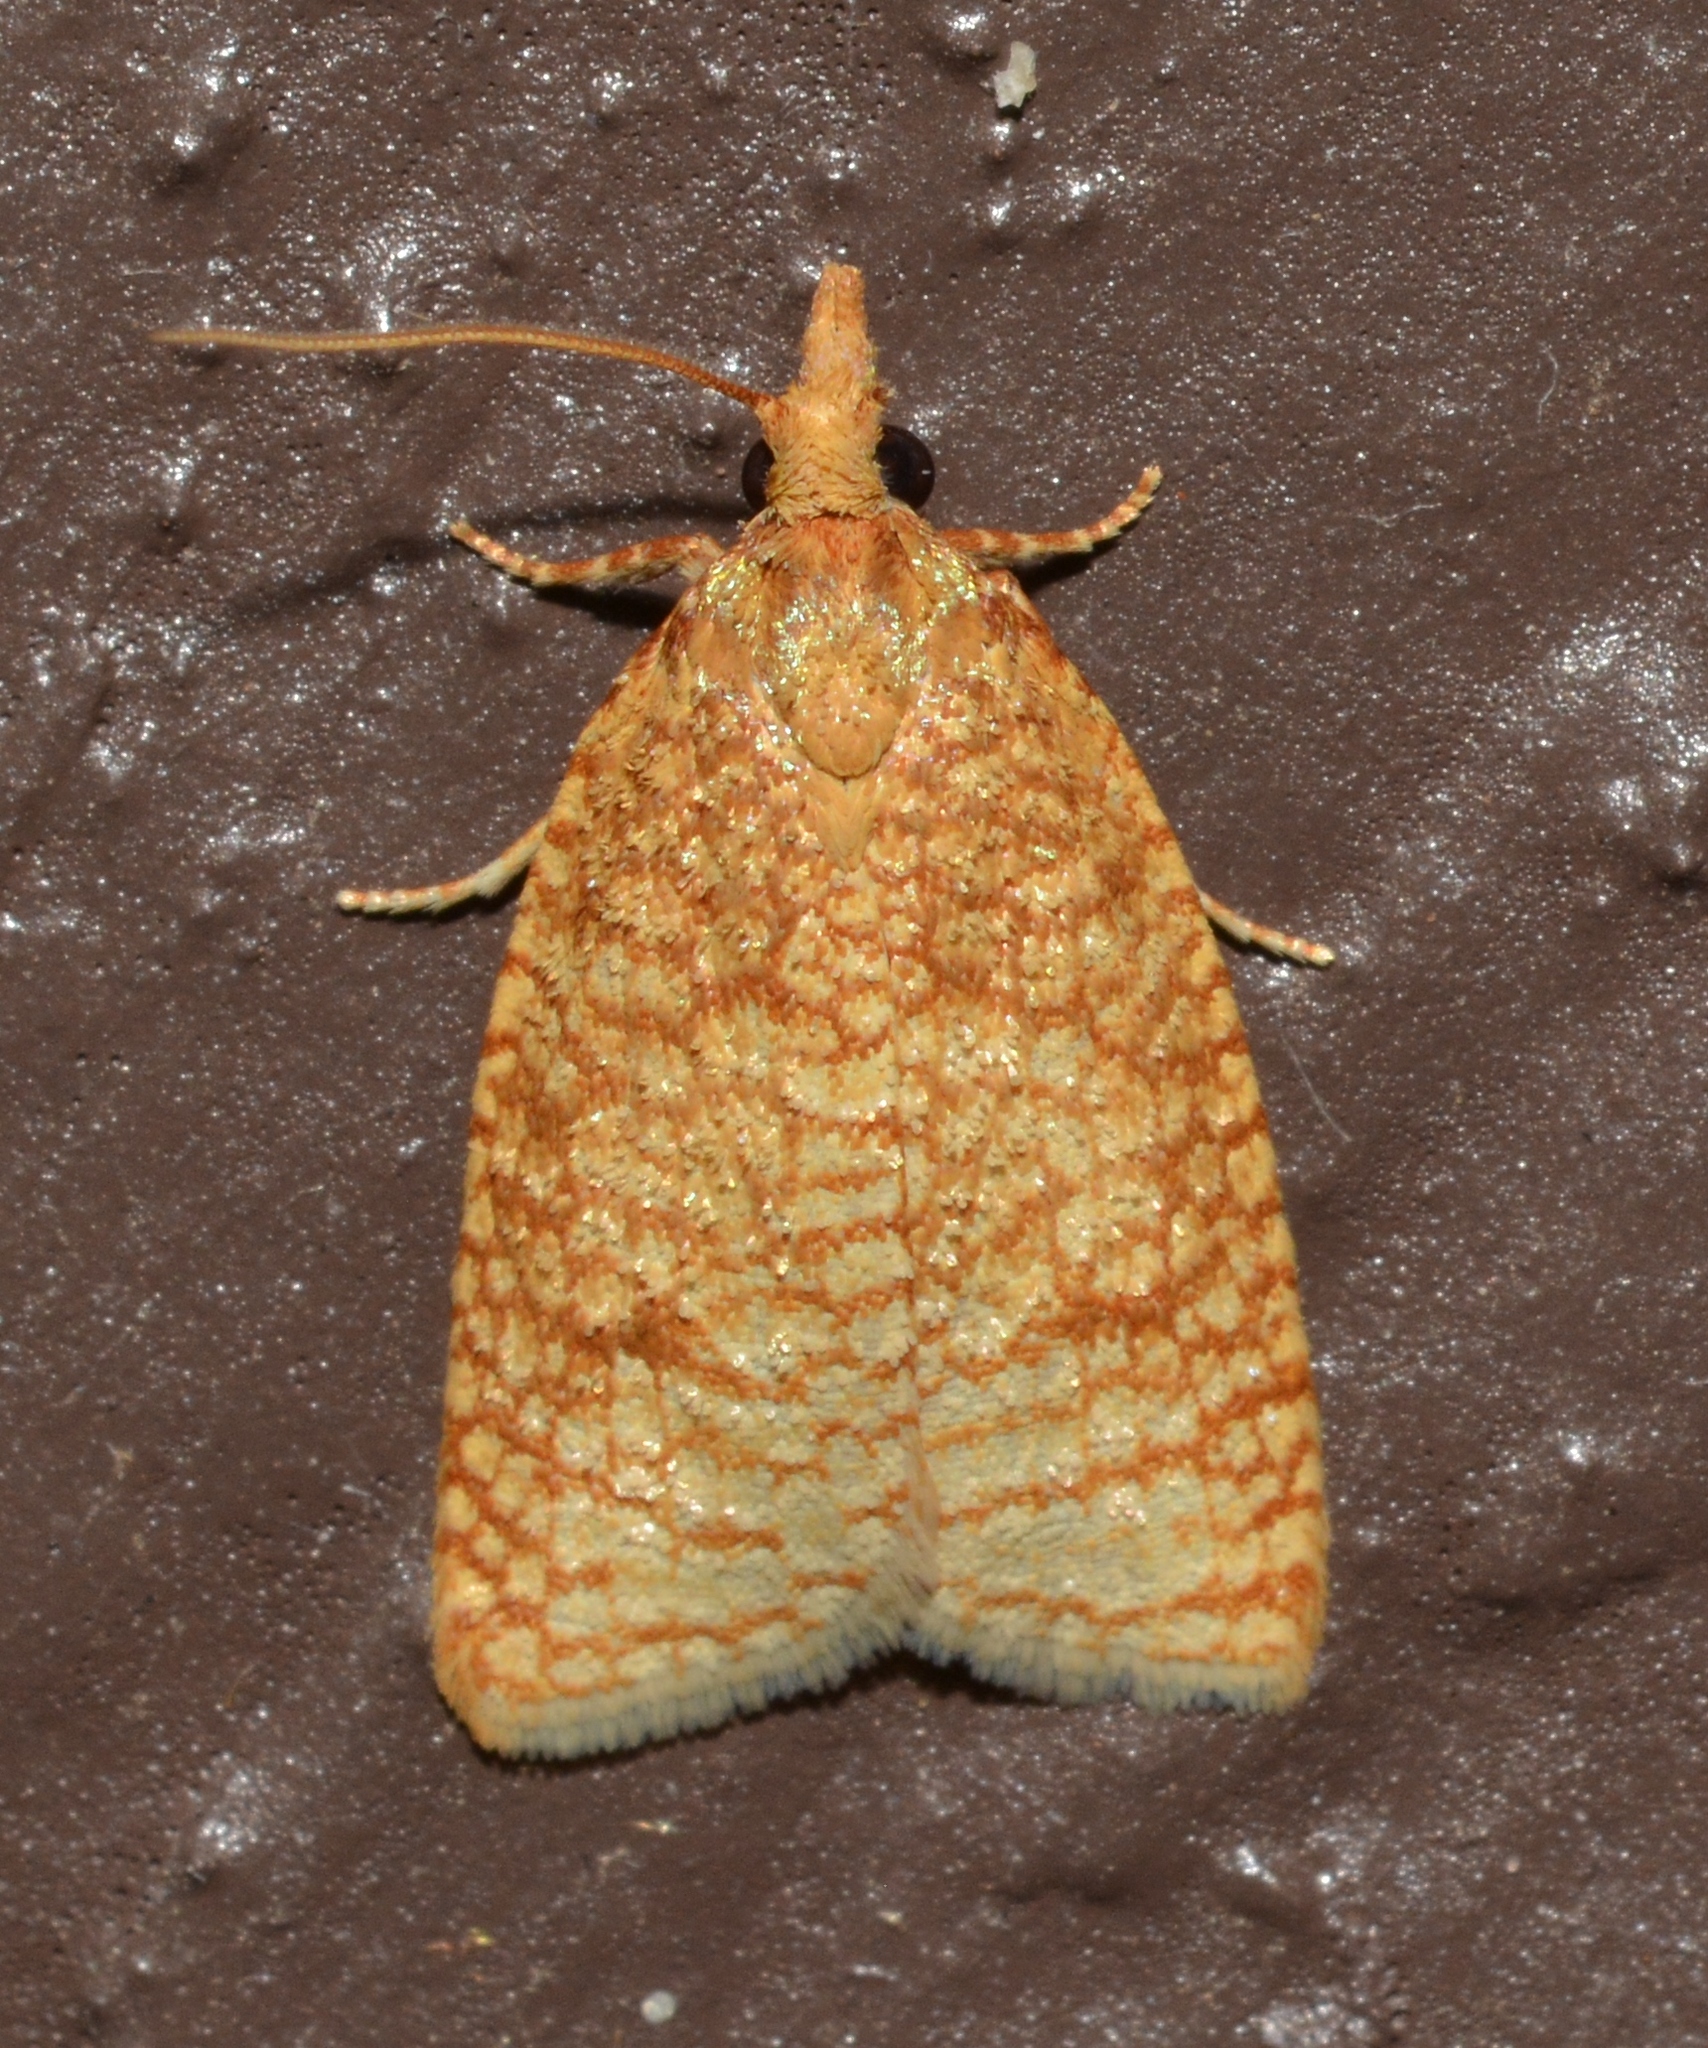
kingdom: Animalia
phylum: Arthropoda
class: Insecta
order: Lepidoptera
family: Tortricidae
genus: Sparganothis
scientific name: Sparganothis caryae
